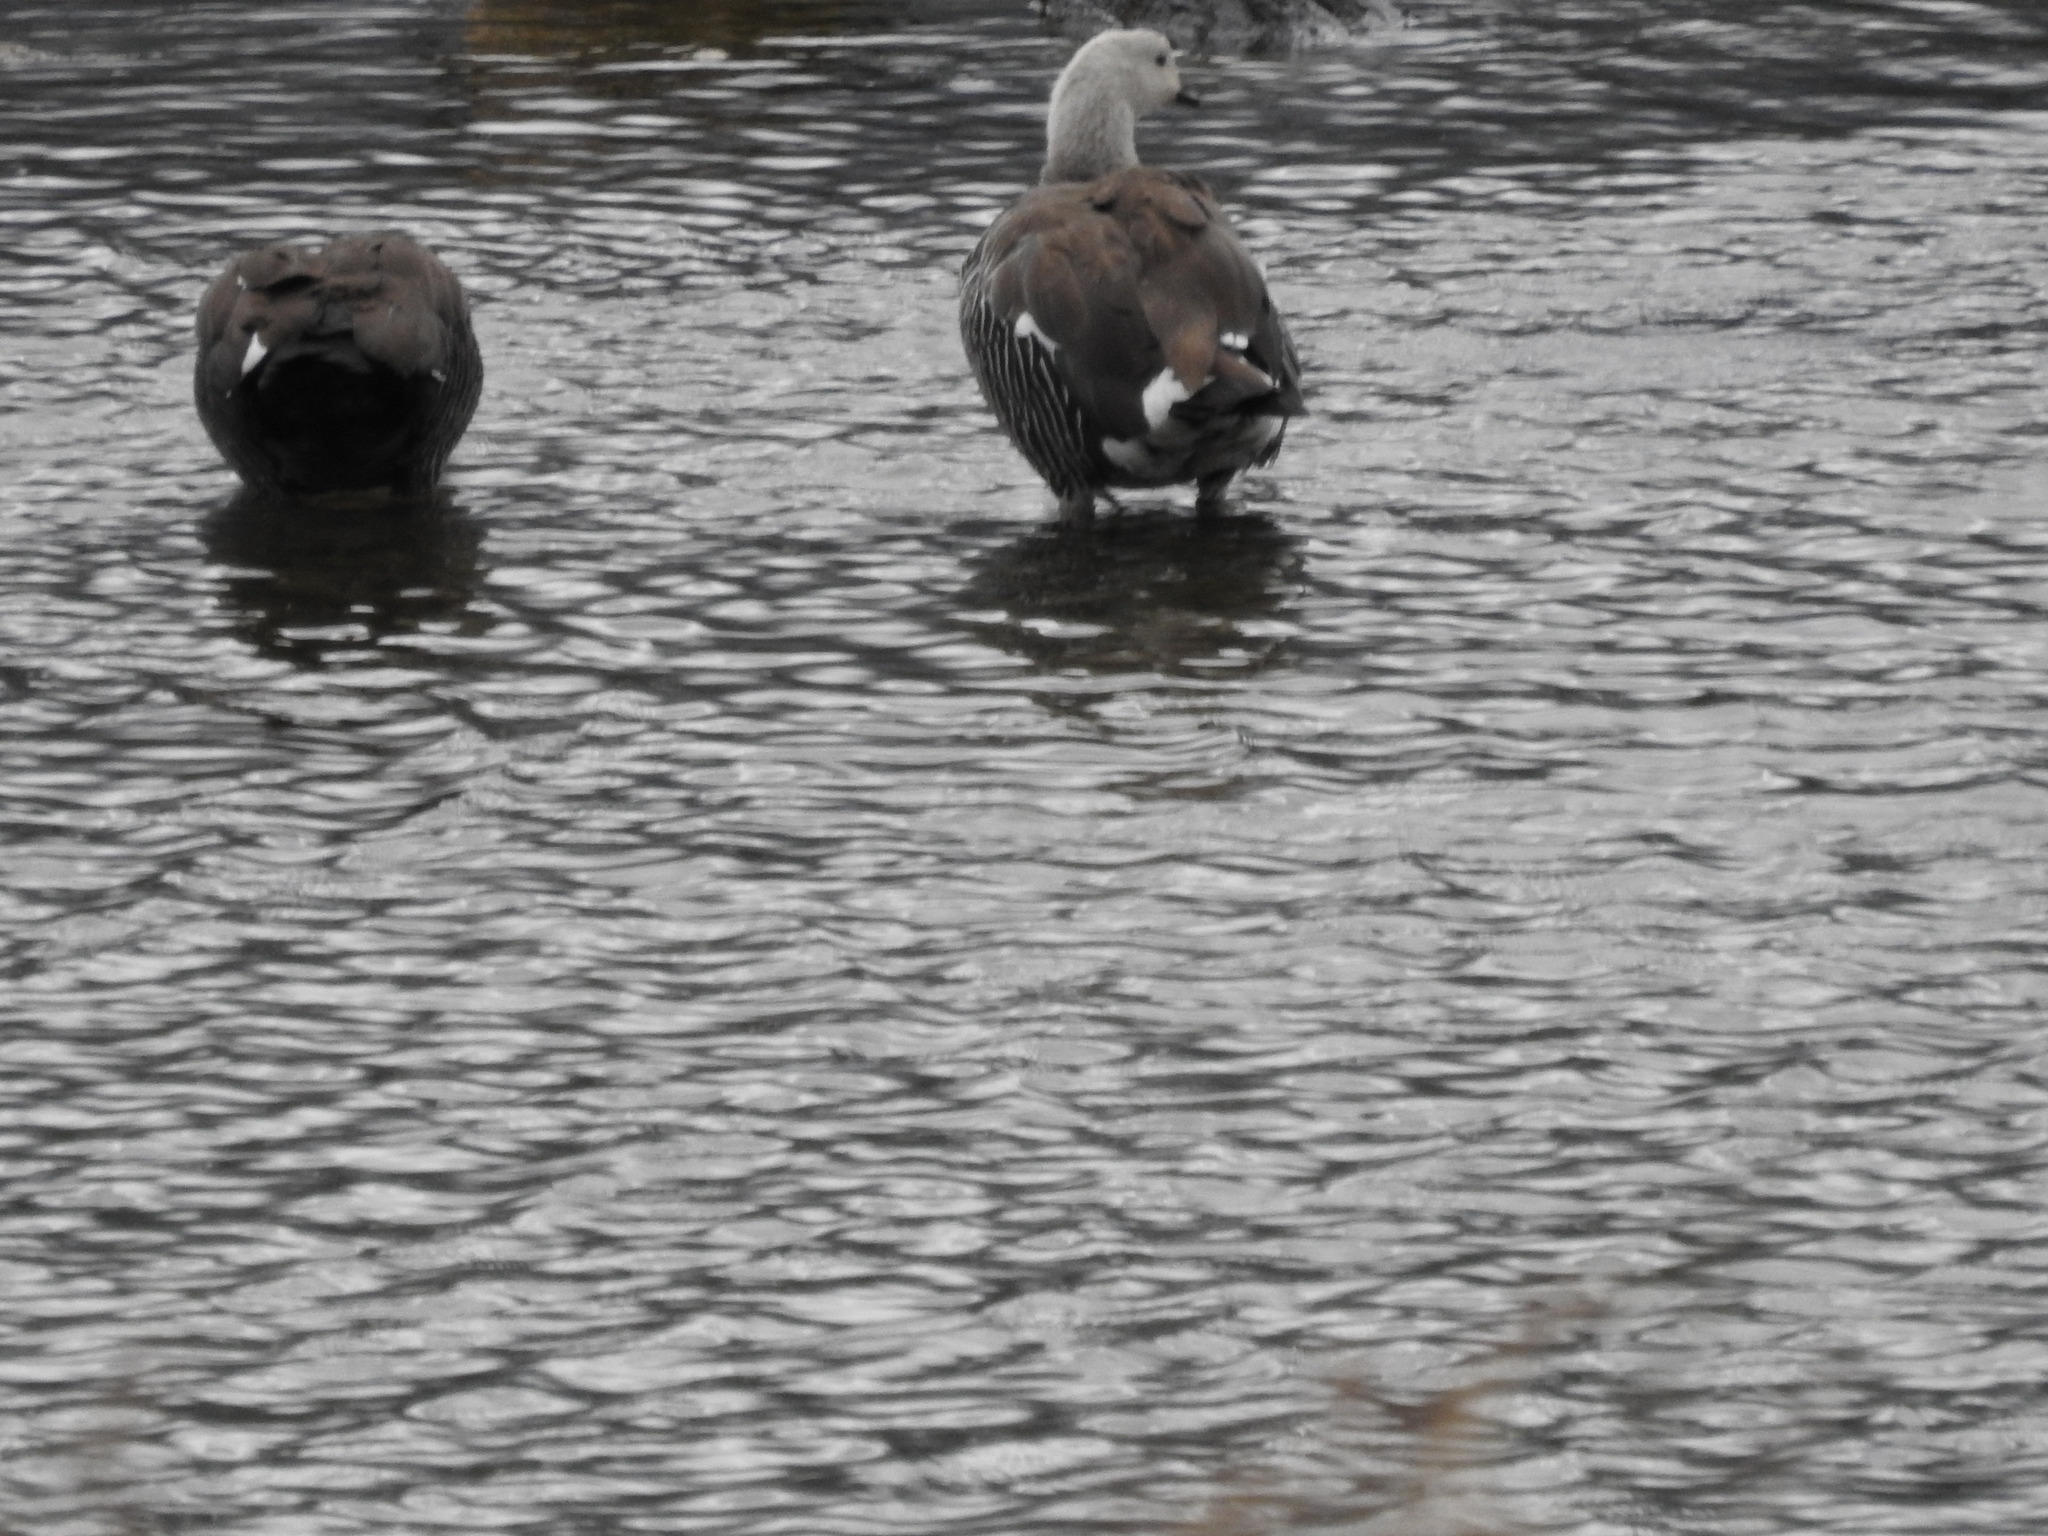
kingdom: Animalia
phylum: Chordata
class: Aves
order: Anseriformes
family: Anatidae
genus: Chloephaga
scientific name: Chloephaga picta
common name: Upland goose
